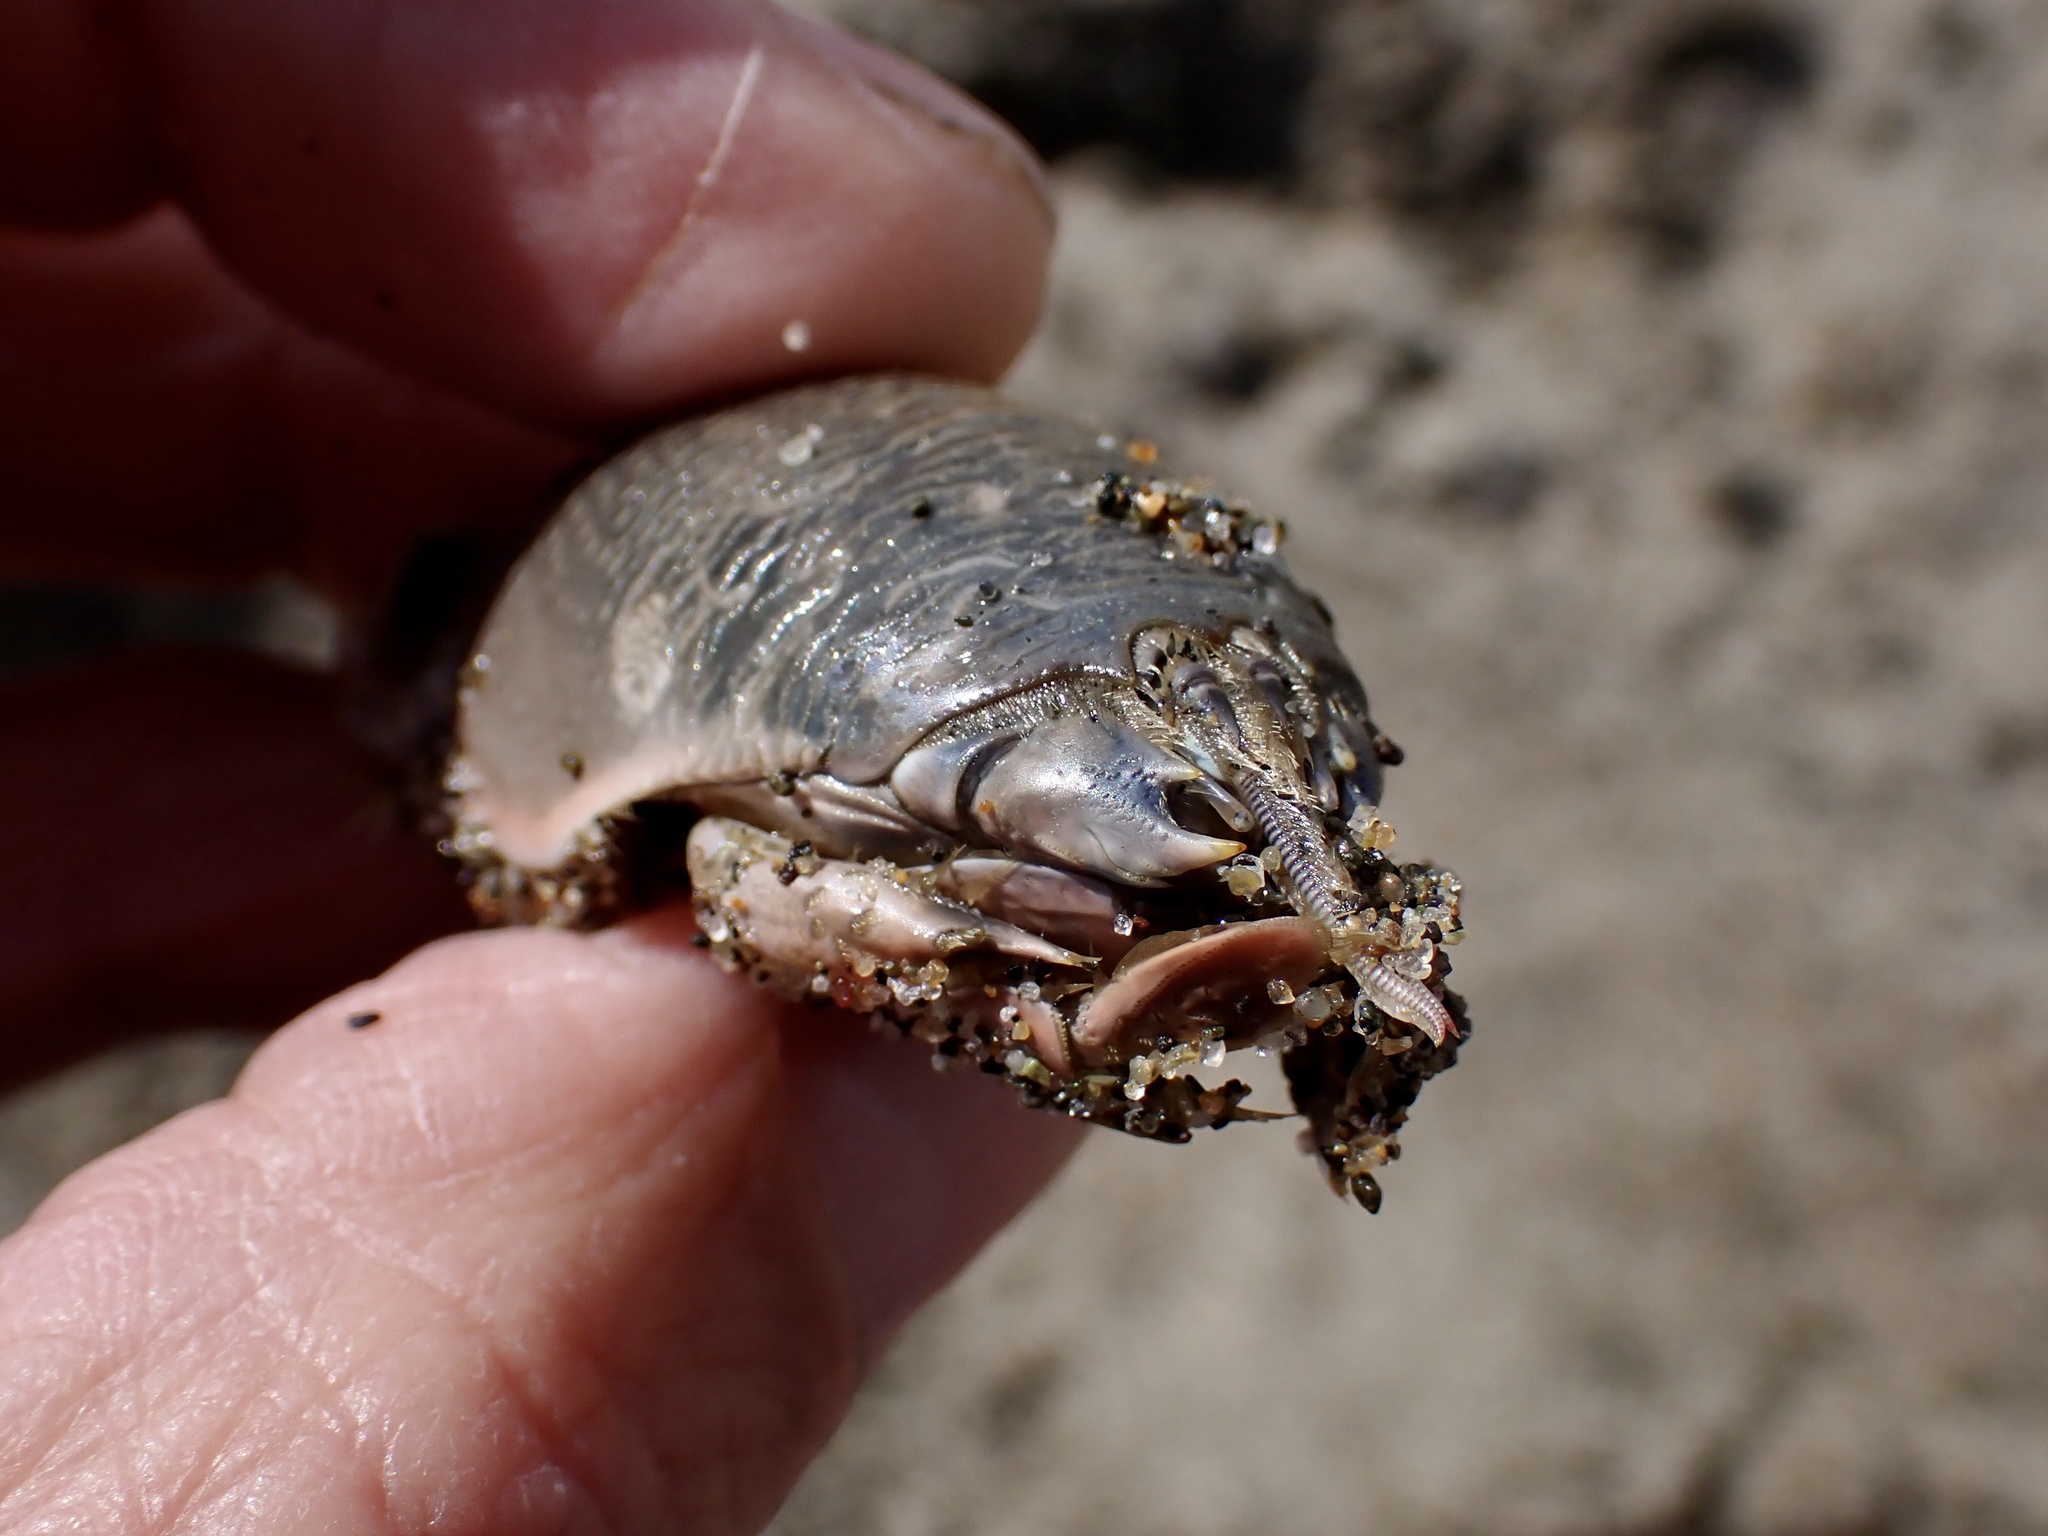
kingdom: Animalia
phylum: Arthropoda
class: Malacostraca
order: Decapoda
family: Hippidae
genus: Emerita
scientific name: Emerita analoga
